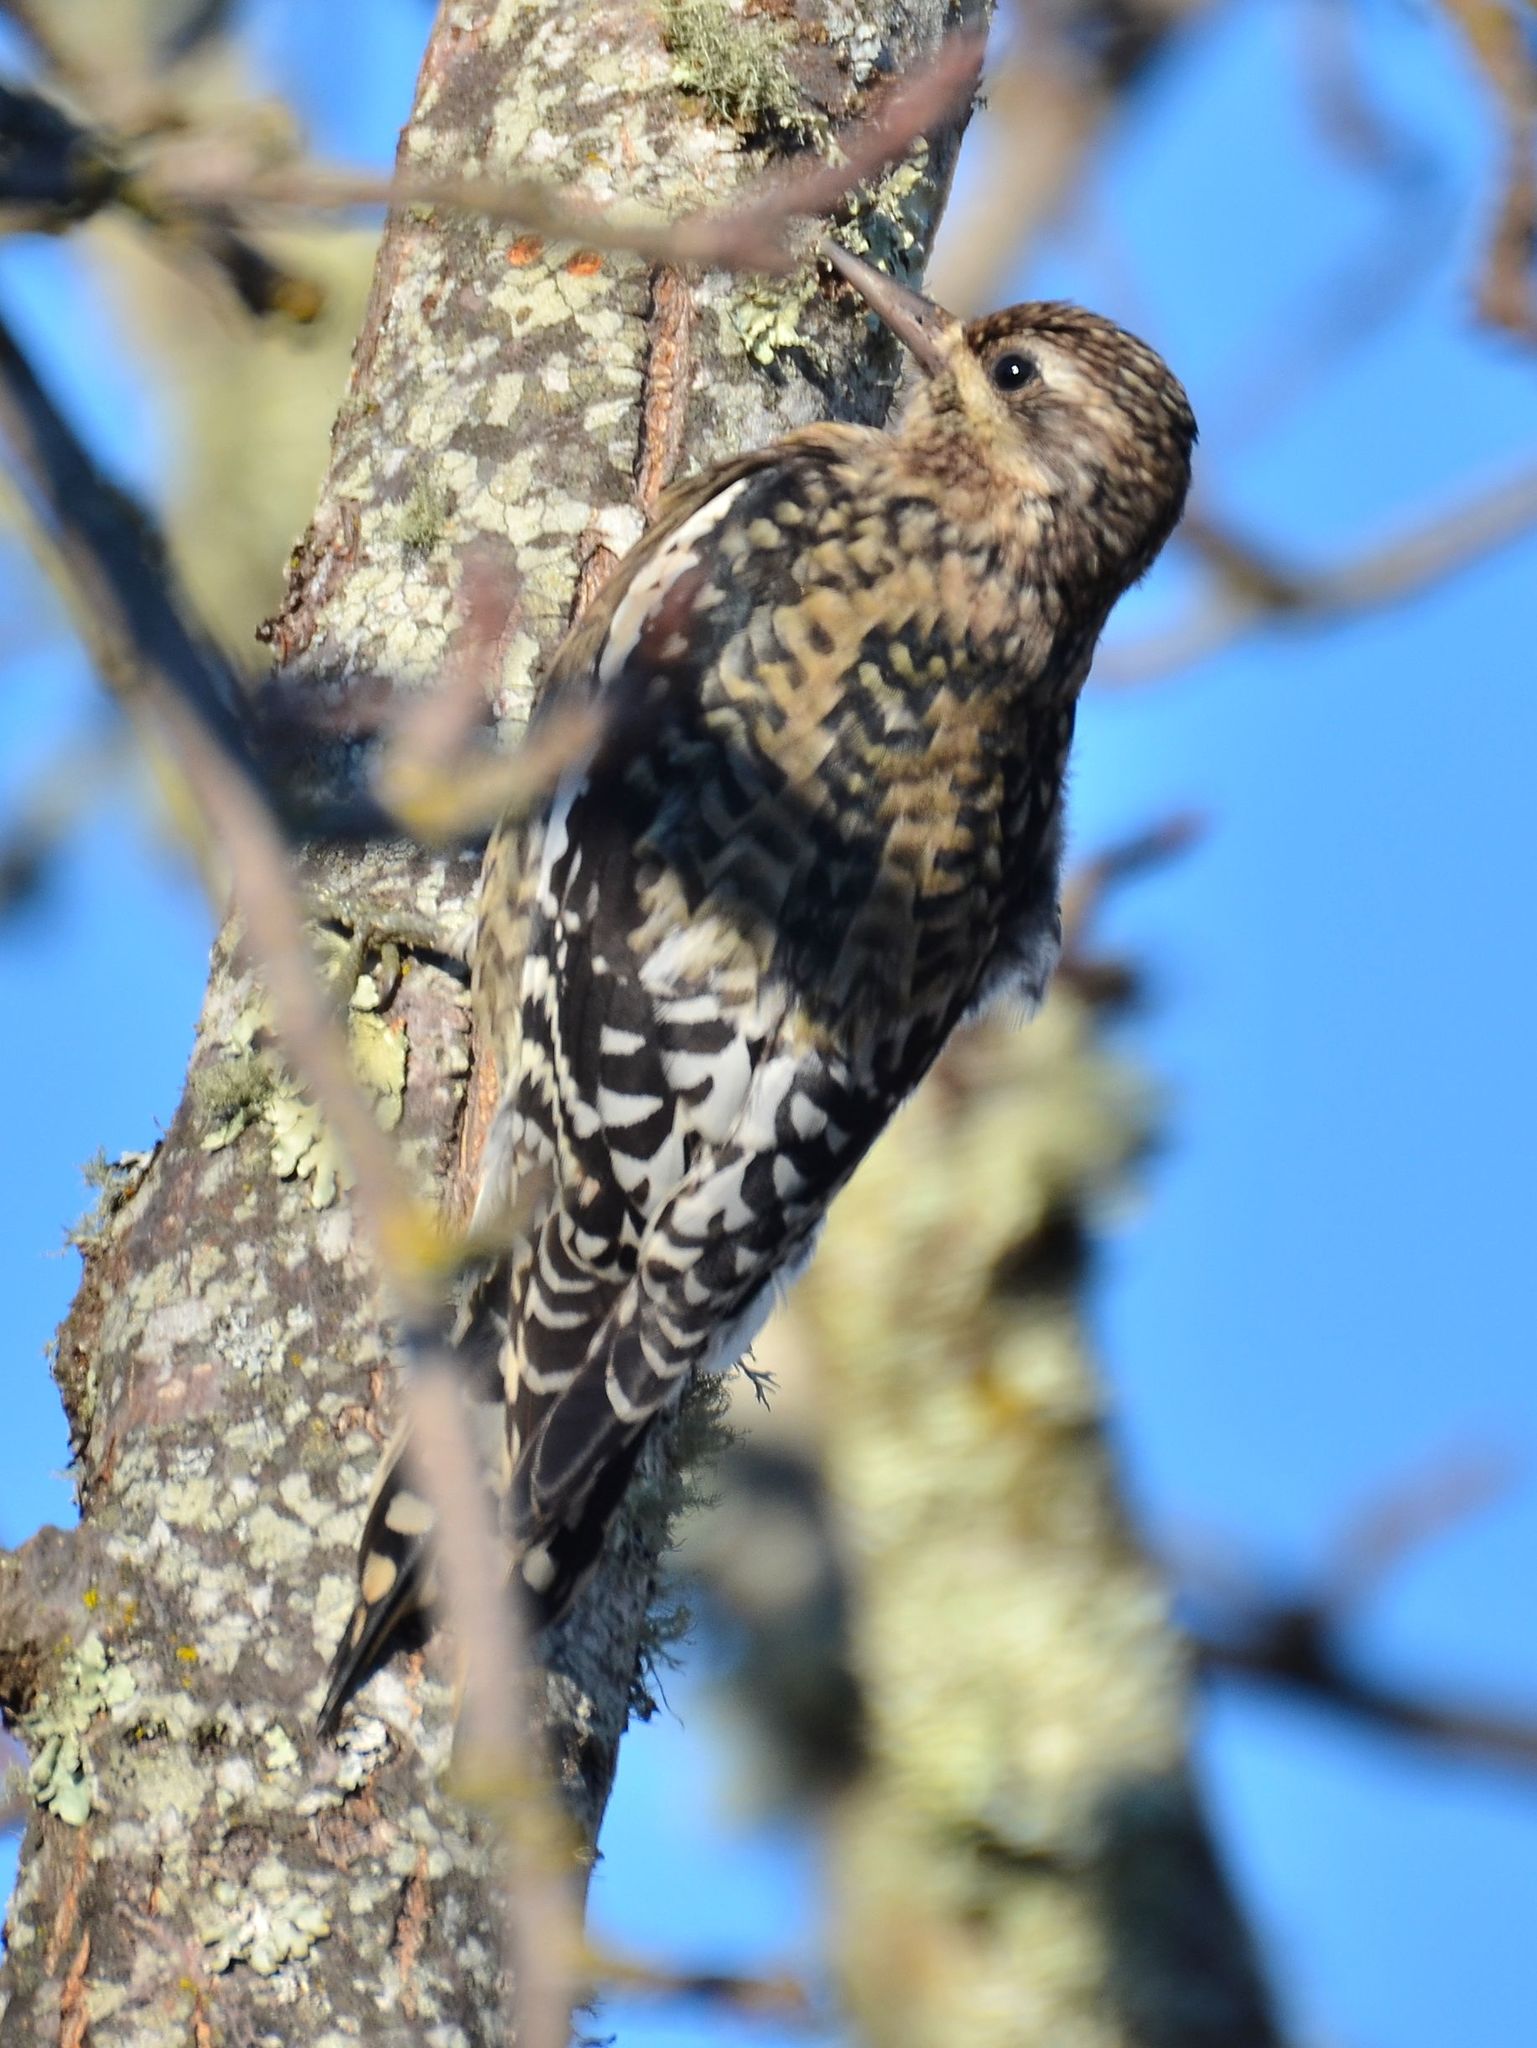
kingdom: Animalia
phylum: Chordata
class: Aves
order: Piciformes
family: Picidae
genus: Sphyrapicus
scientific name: Sphyrapicus varius
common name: Yellow-bellied sapsucker
